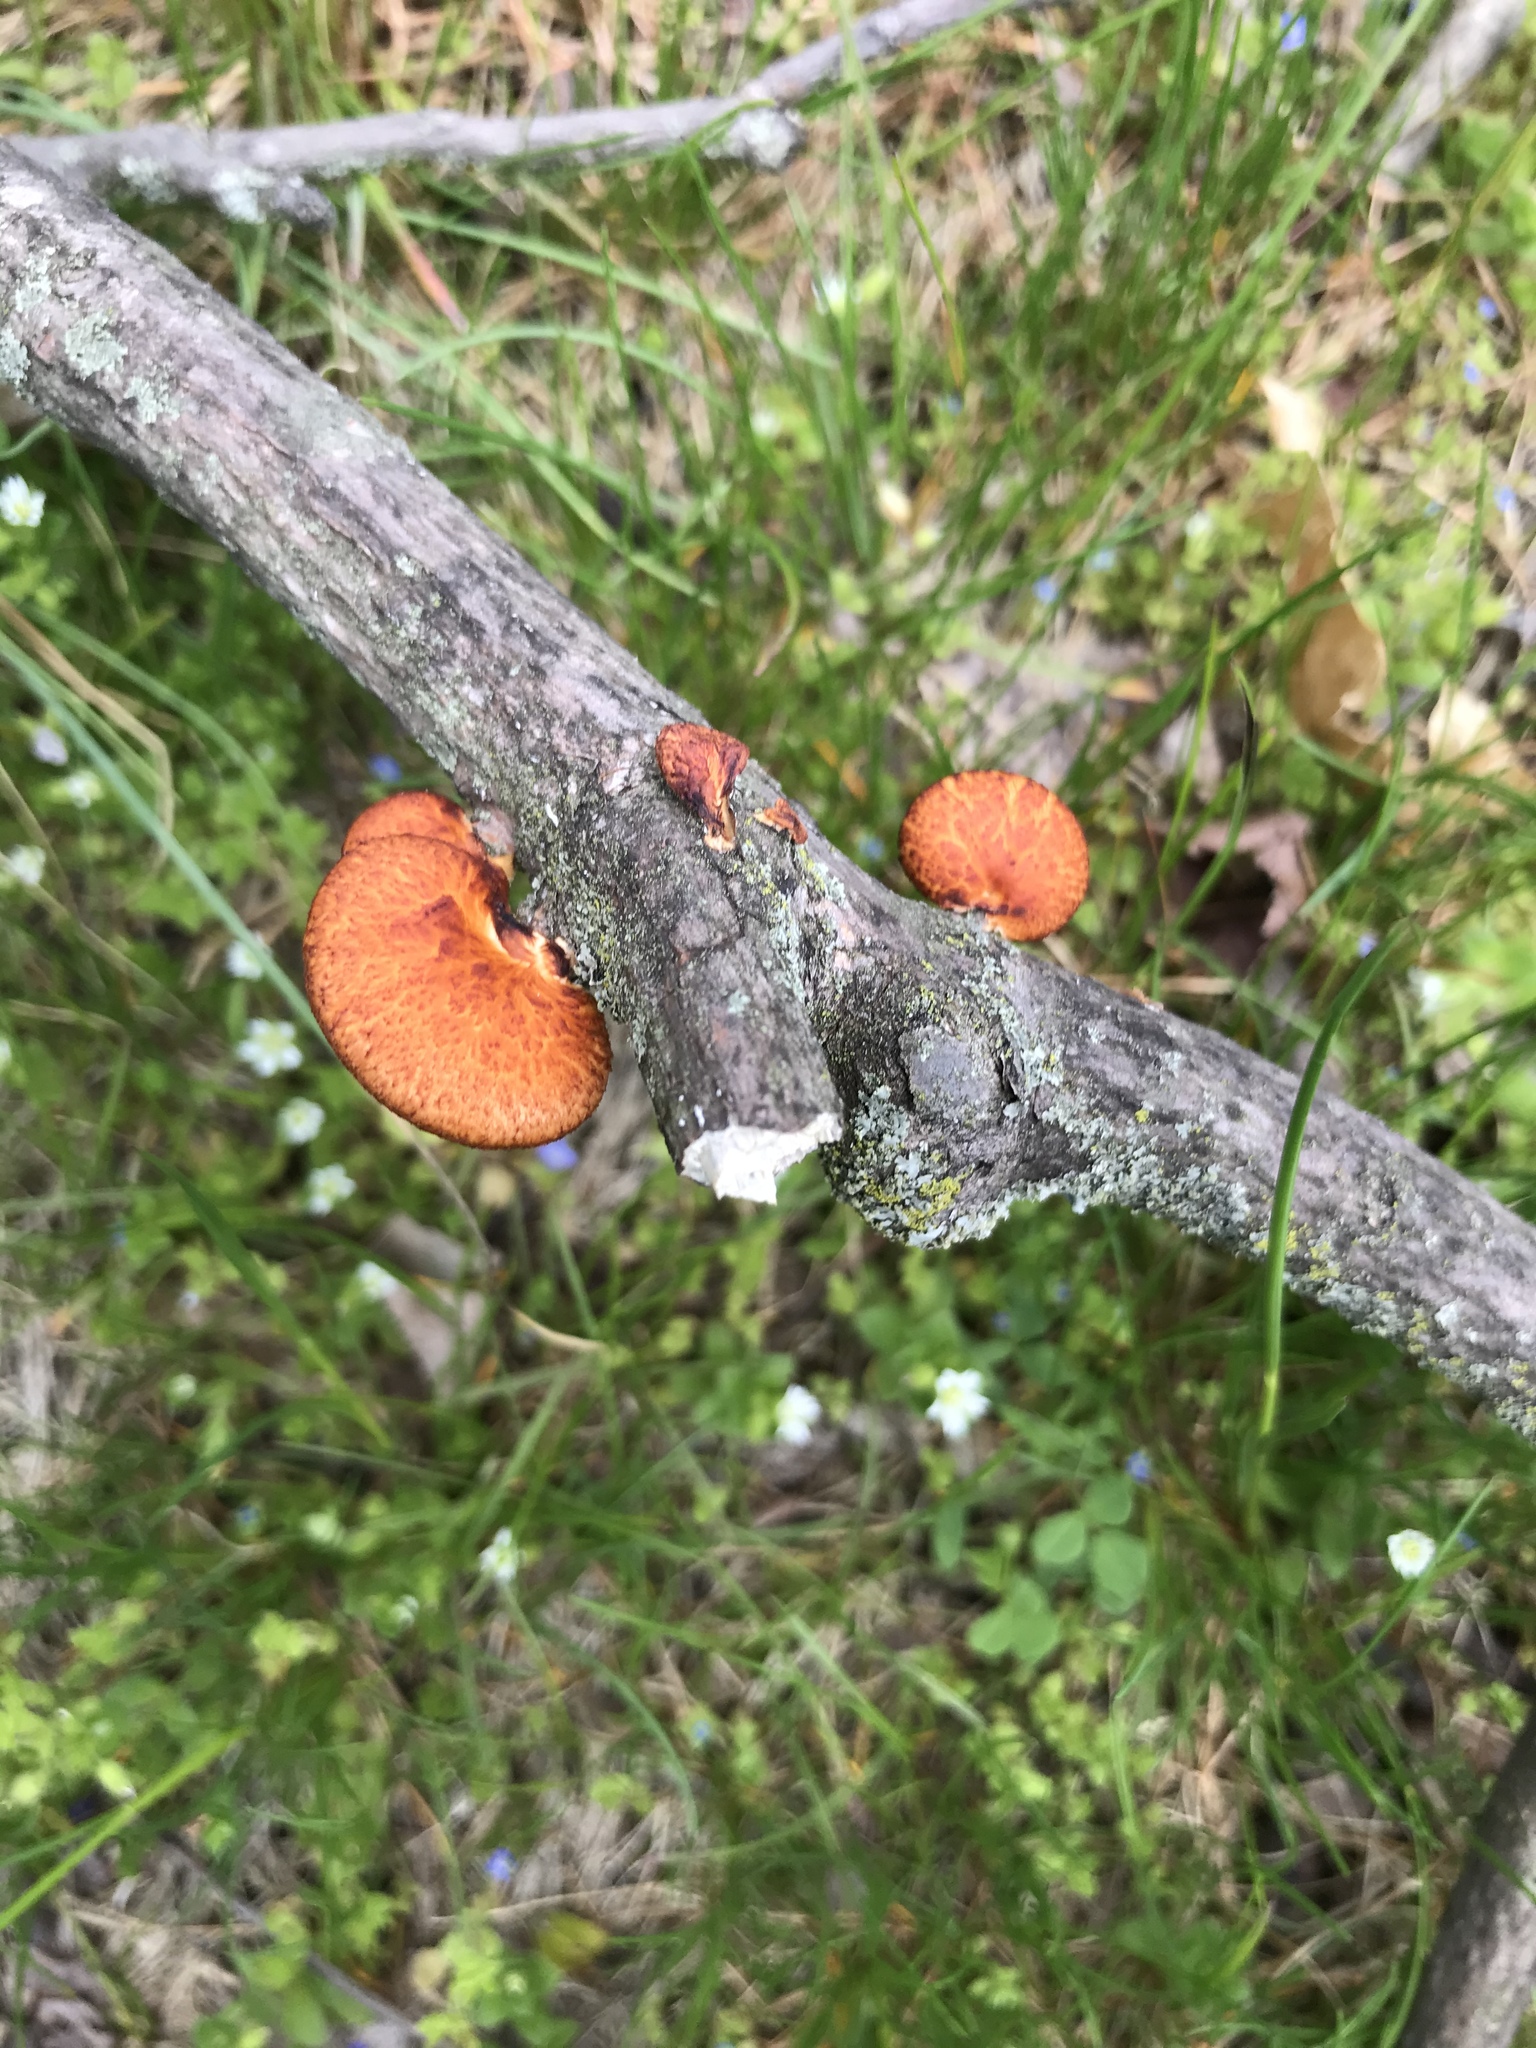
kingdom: Fungi
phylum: Basidiomycota
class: Agaricomycetes
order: Polyporales
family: Polyporaceae
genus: Neofavolus
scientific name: Neofavolus alveolaris
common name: Hexagonal-pored polypore
